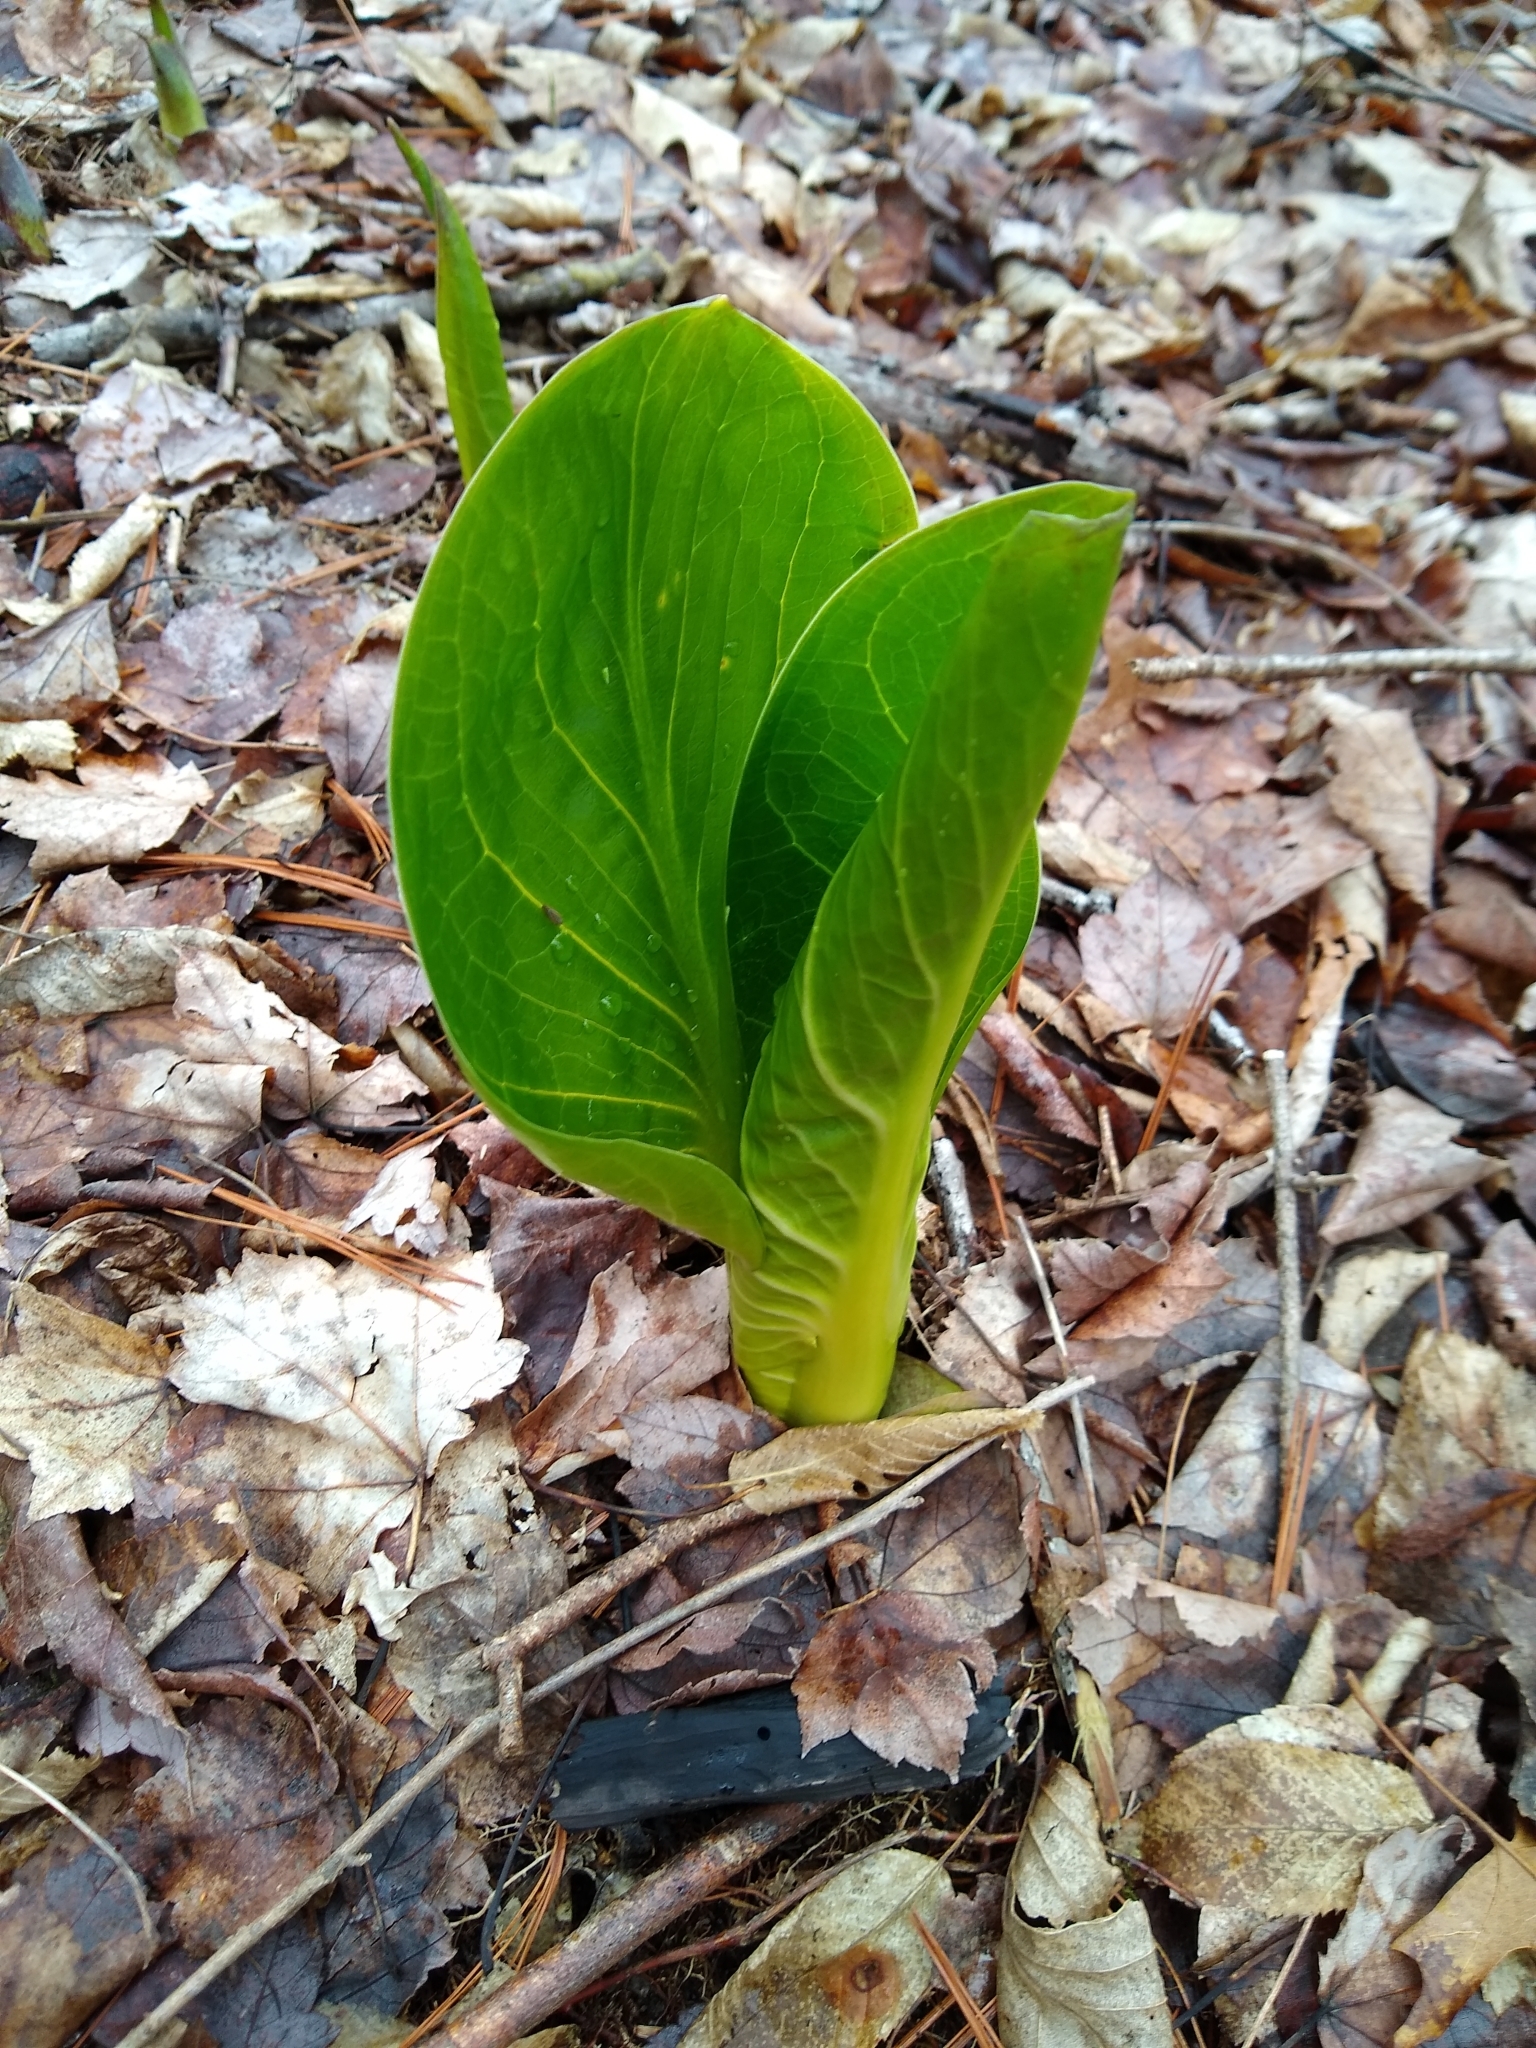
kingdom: Plantae
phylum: Tracheophyta
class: Liliopsida
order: Alismatales
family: Araceae
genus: Symplocarpus
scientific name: Symplocarpus foetidus
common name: Eastern skunk cabbage
